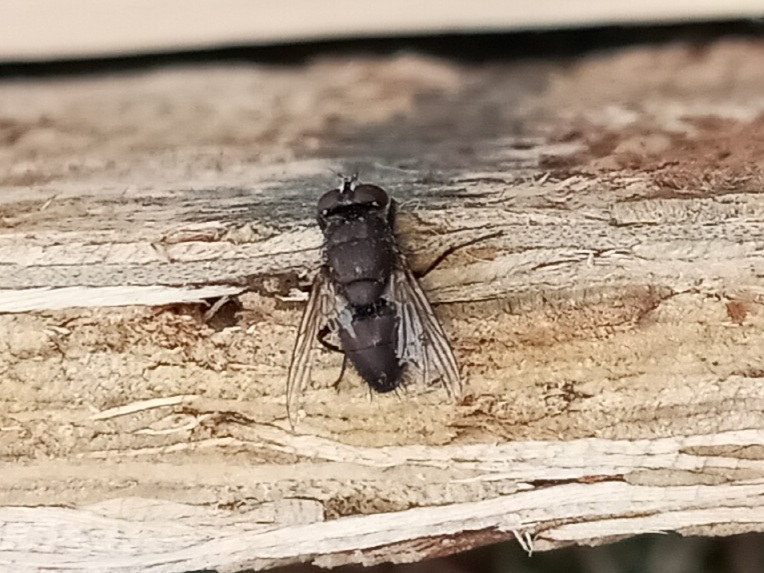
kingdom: Animalia
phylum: Arthropoda
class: Insecta
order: Diptera
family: Calliphoridae
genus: Lucilia
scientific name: Lucilia cuprina
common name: Sheep blow fly
